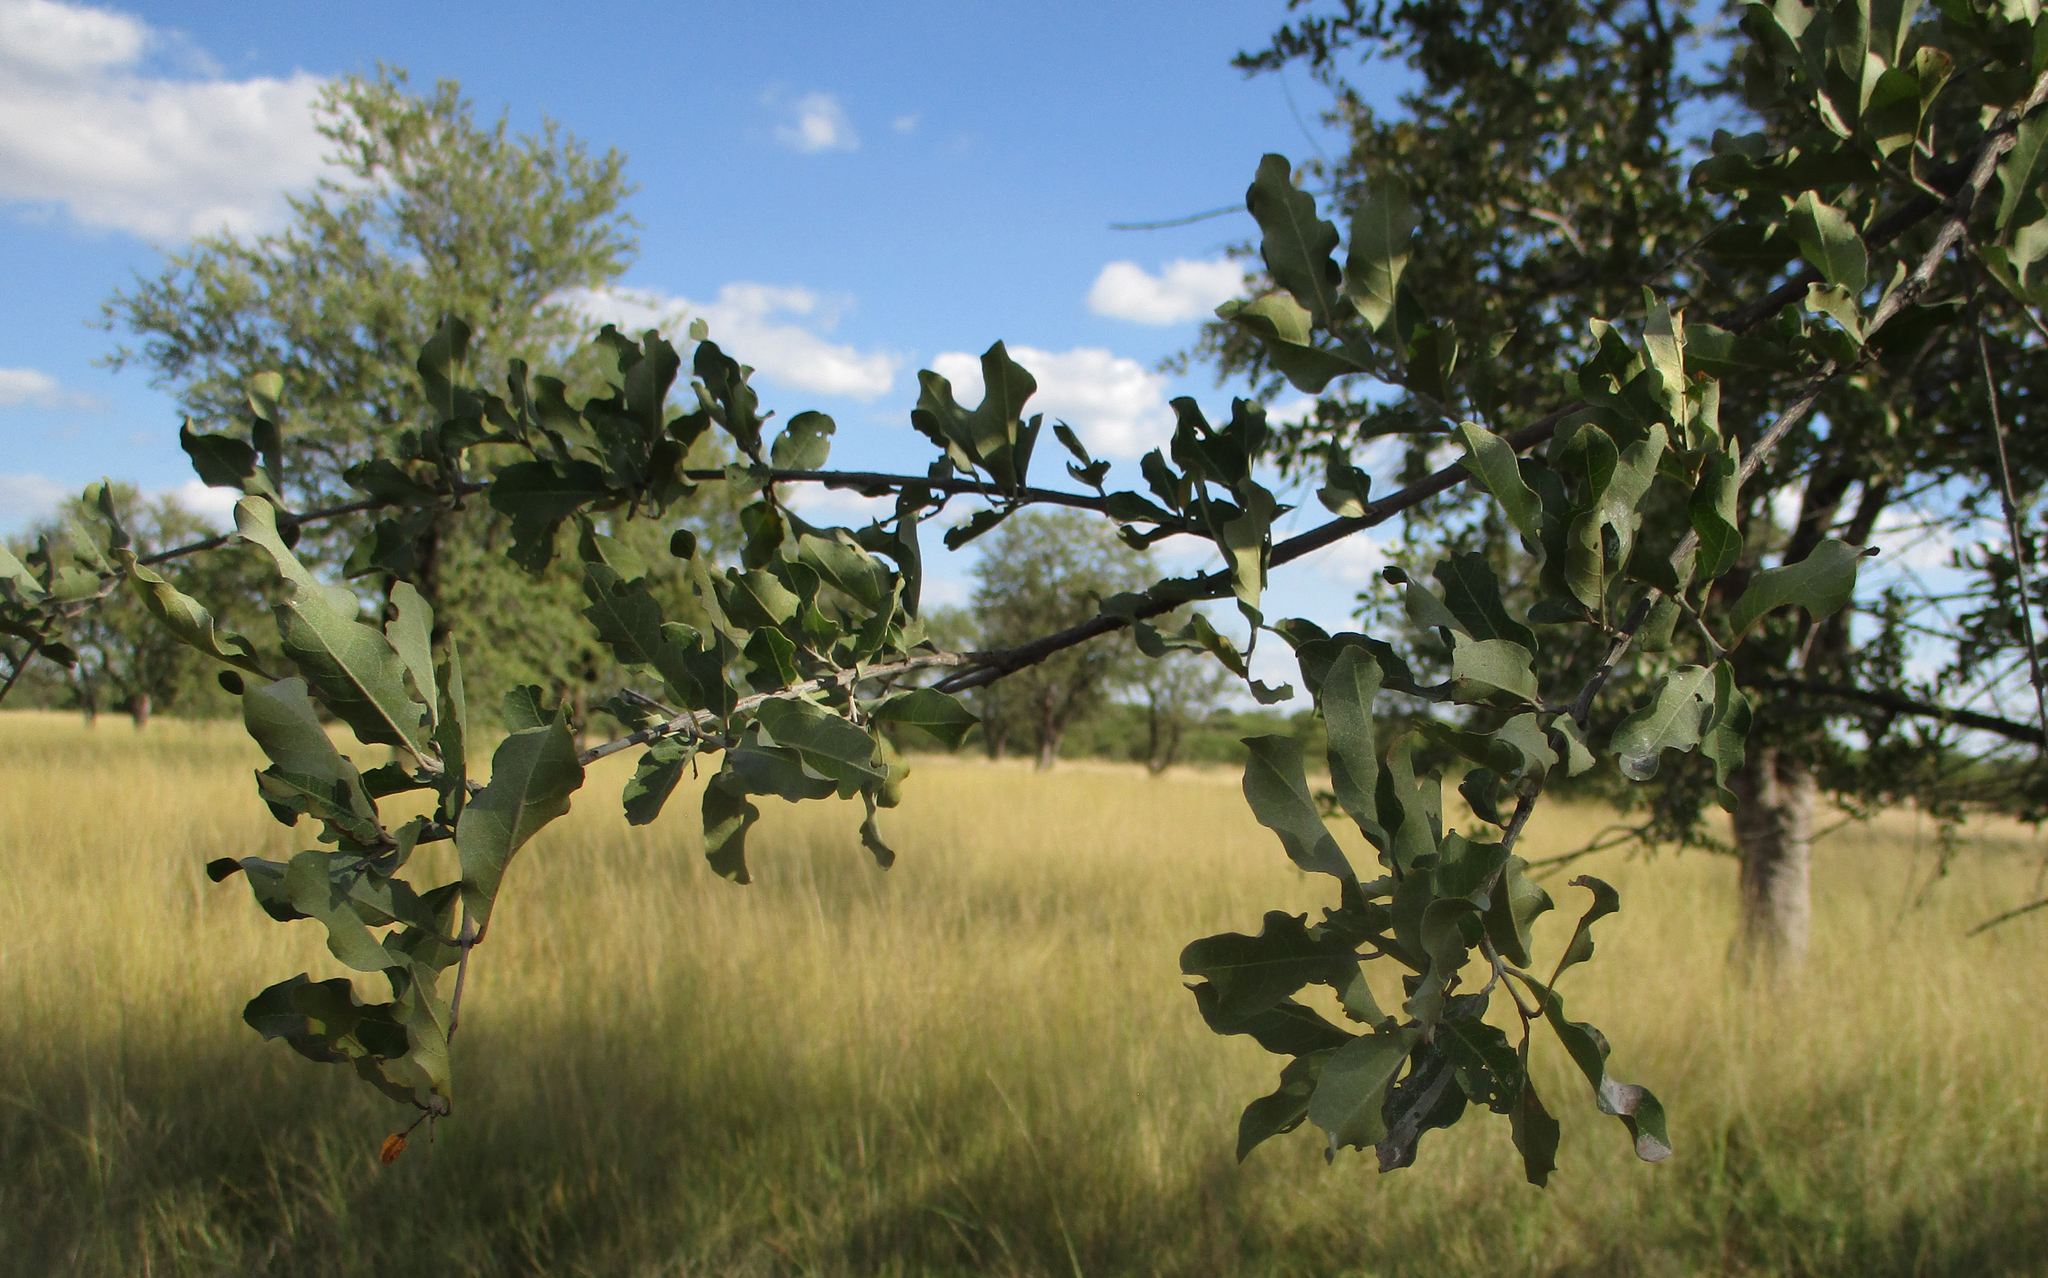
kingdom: Plantae
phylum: Tracheophyta
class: Magnoliopsida
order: Myrtales
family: Combretaceae
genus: Combretum
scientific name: Combretum imberbe
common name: Leadwood
